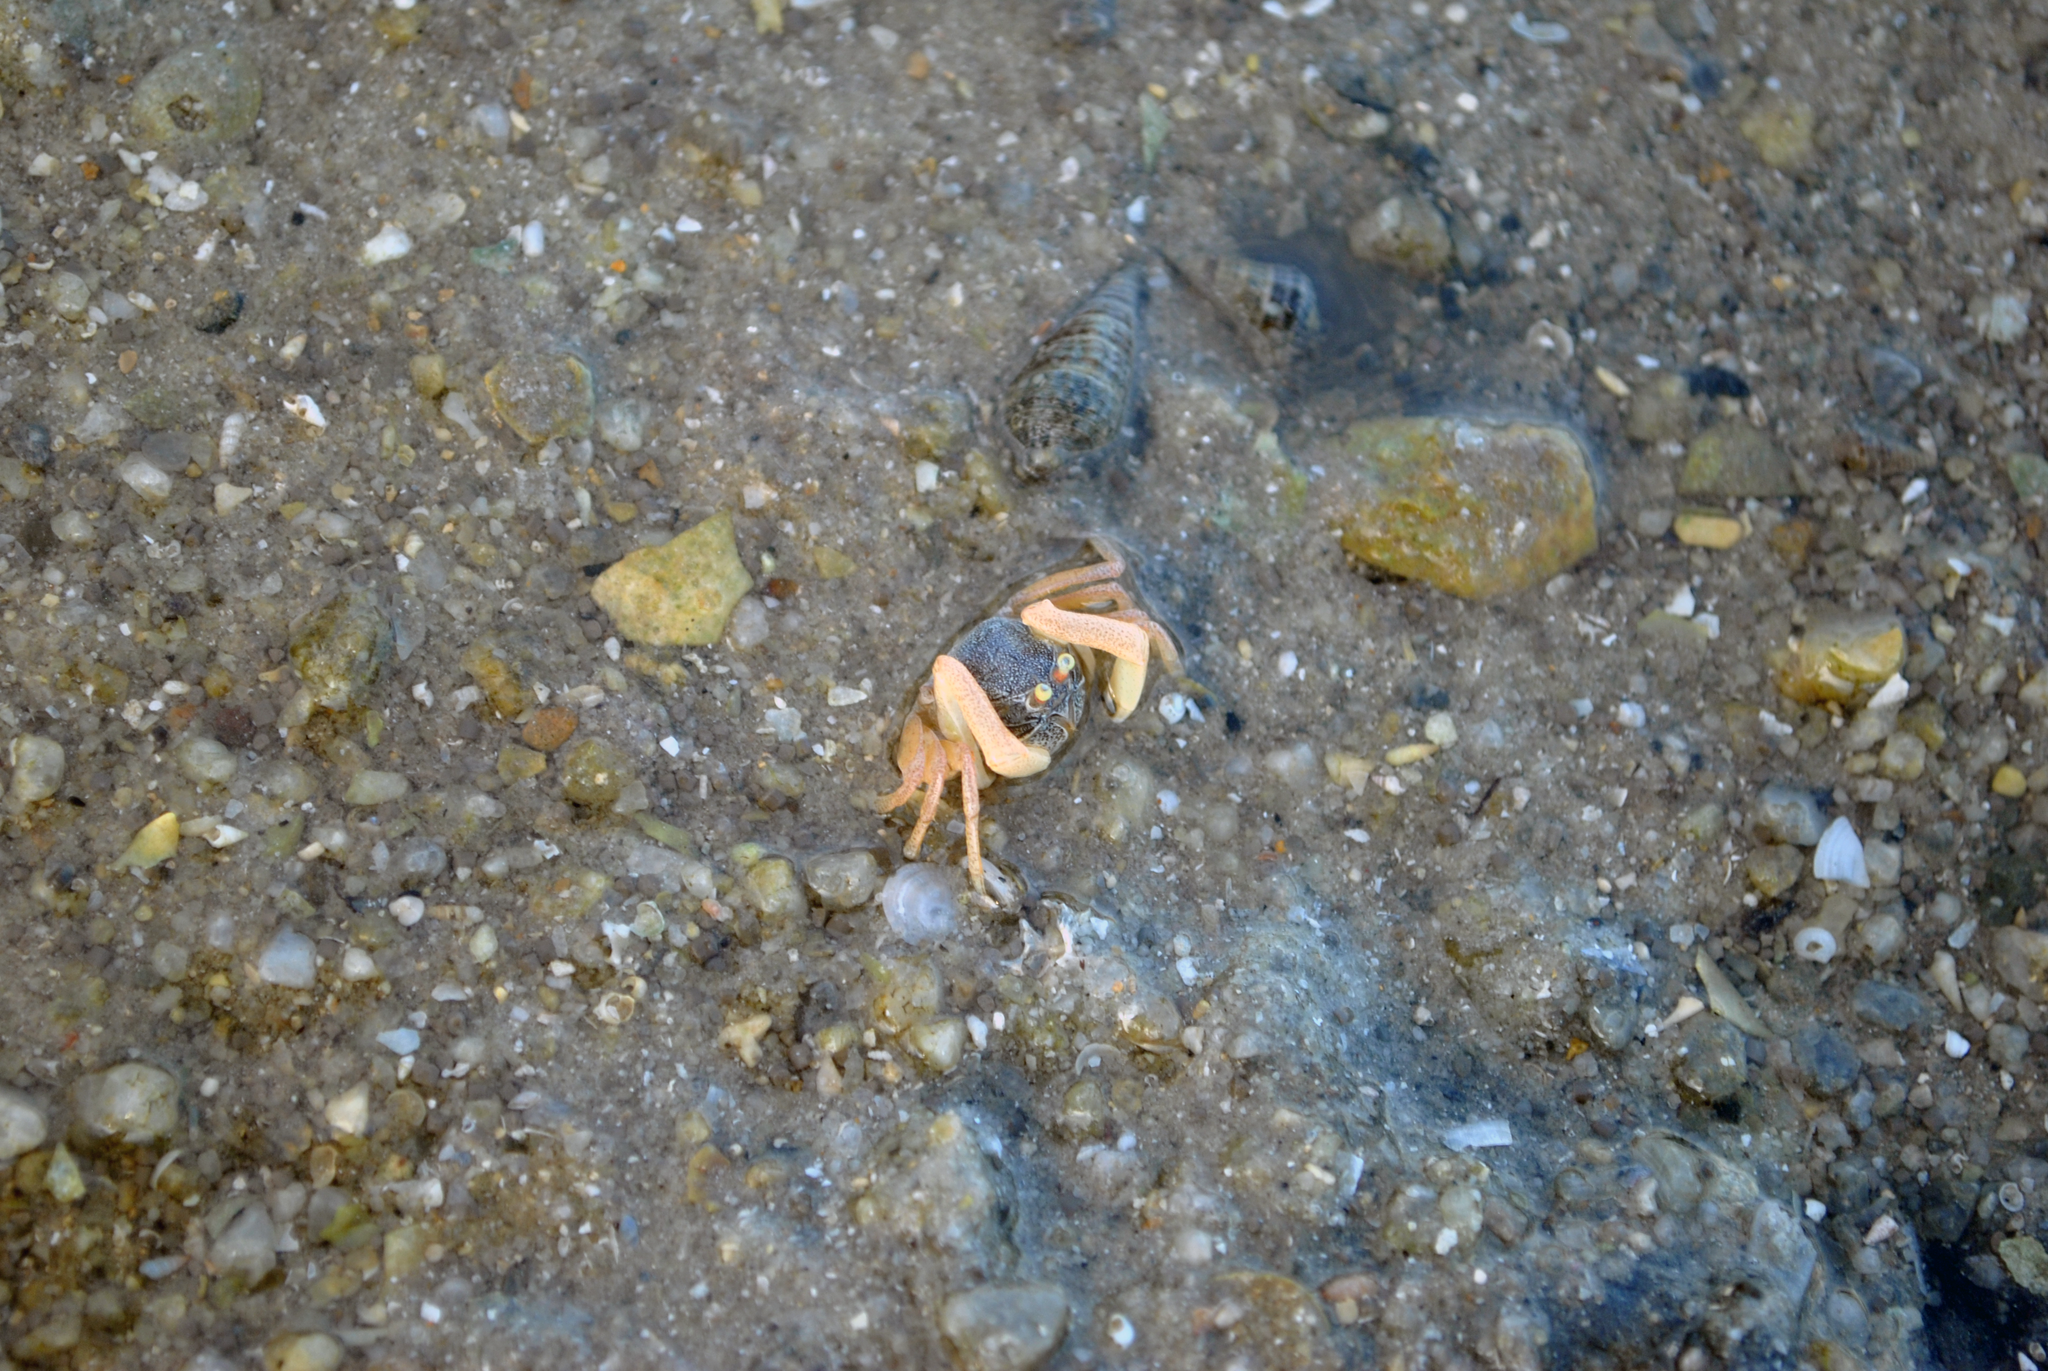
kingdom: Animalia
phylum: Arthropoda
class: Malacostraca
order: Decapoda
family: Dotillidae
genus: Dotilla
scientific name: Dotilla myctiroides
